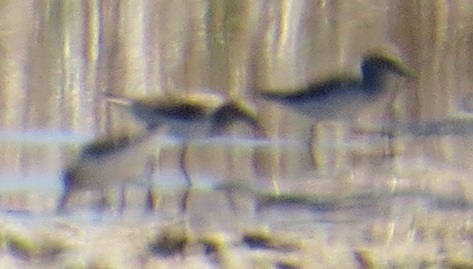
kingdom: Animalia
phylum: Chordata
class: Aves
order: Charadriiformes
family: Scolopacidae
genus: Calidris
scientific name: Calidris
